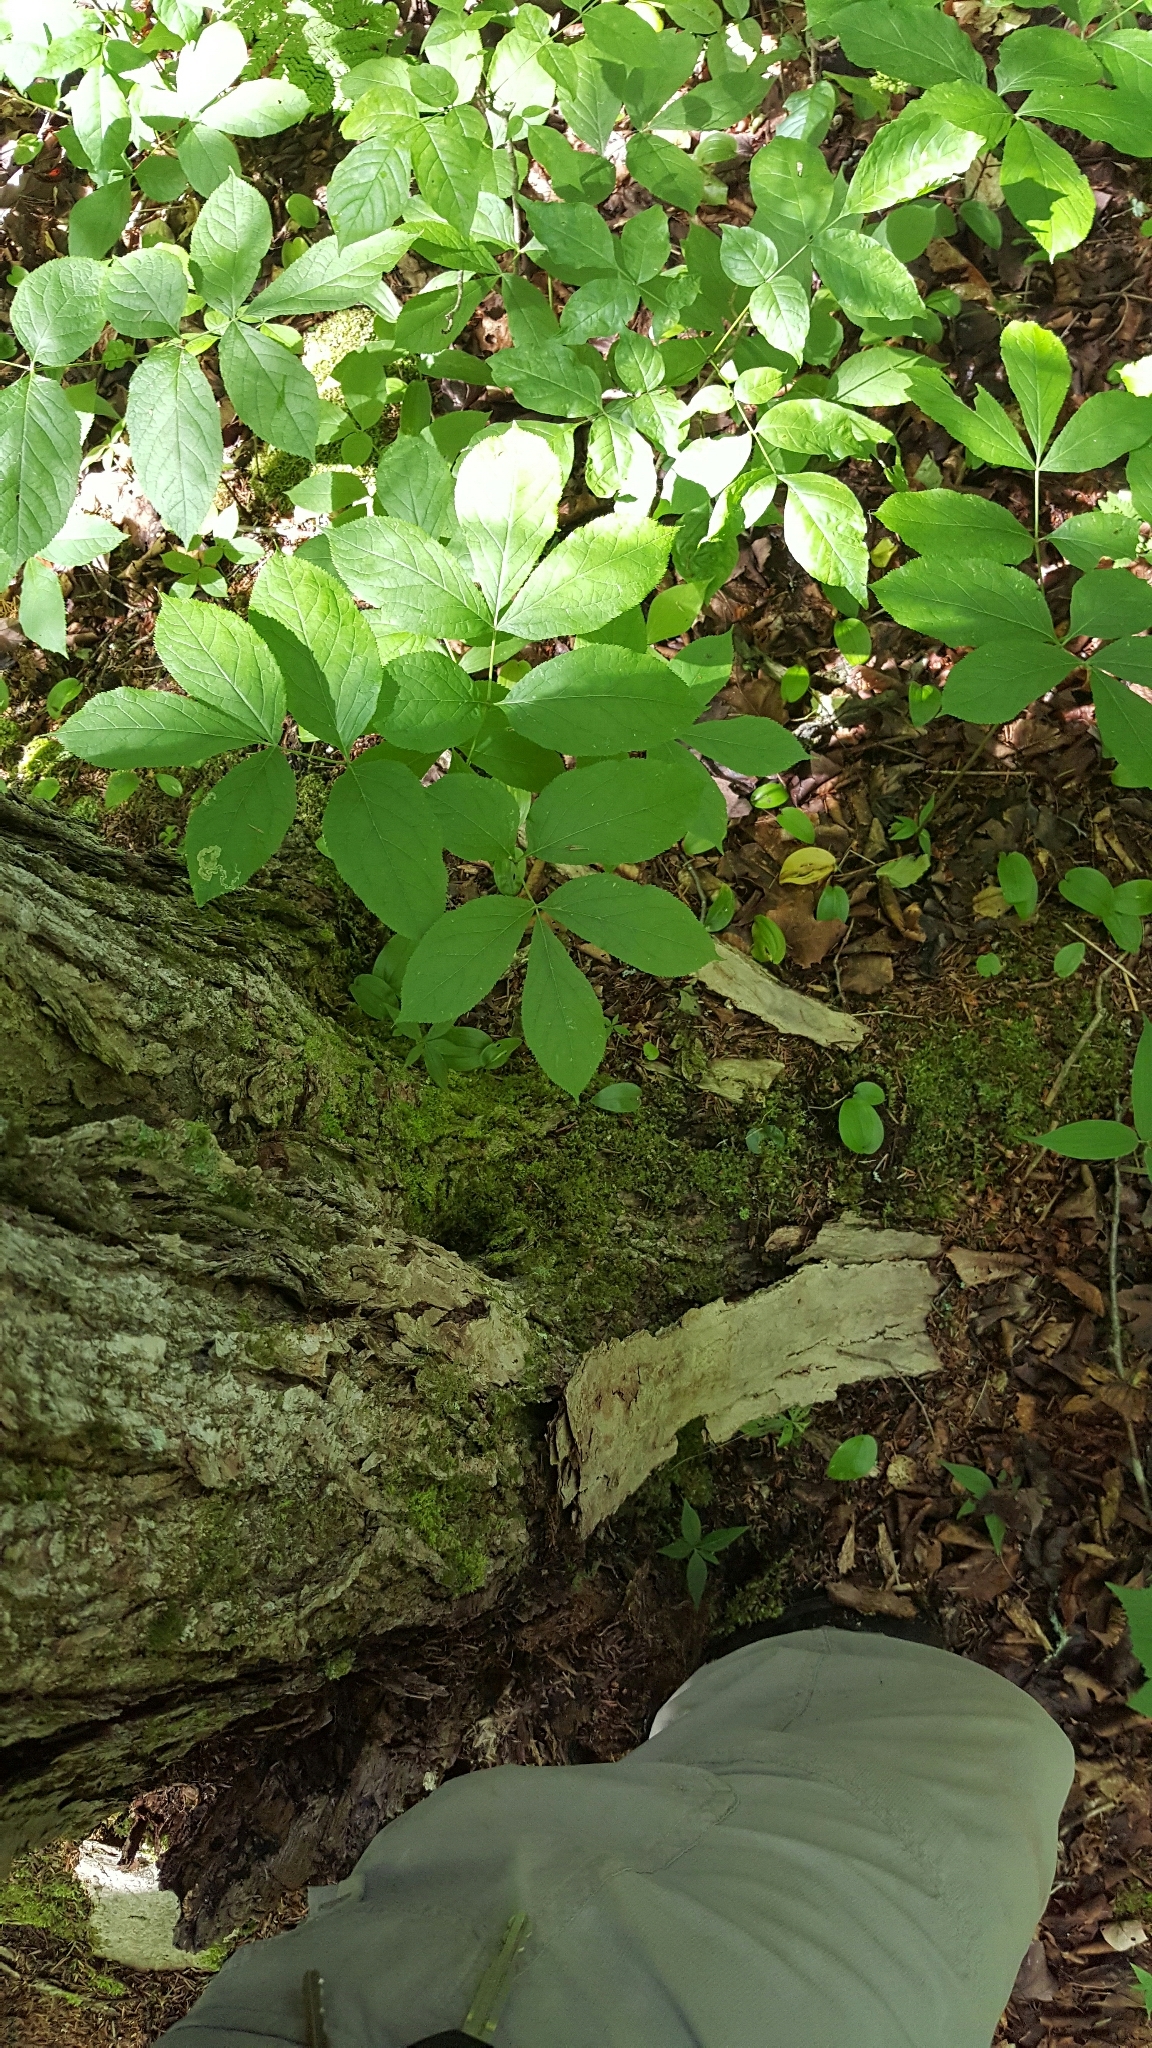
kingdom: Plantae
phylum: Tracheophyta
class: Magnoliopsida
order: Apiales
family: Araliaceae
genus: Aralia
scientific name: Aralia nudicaulis
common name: Wild sarsaparilla
